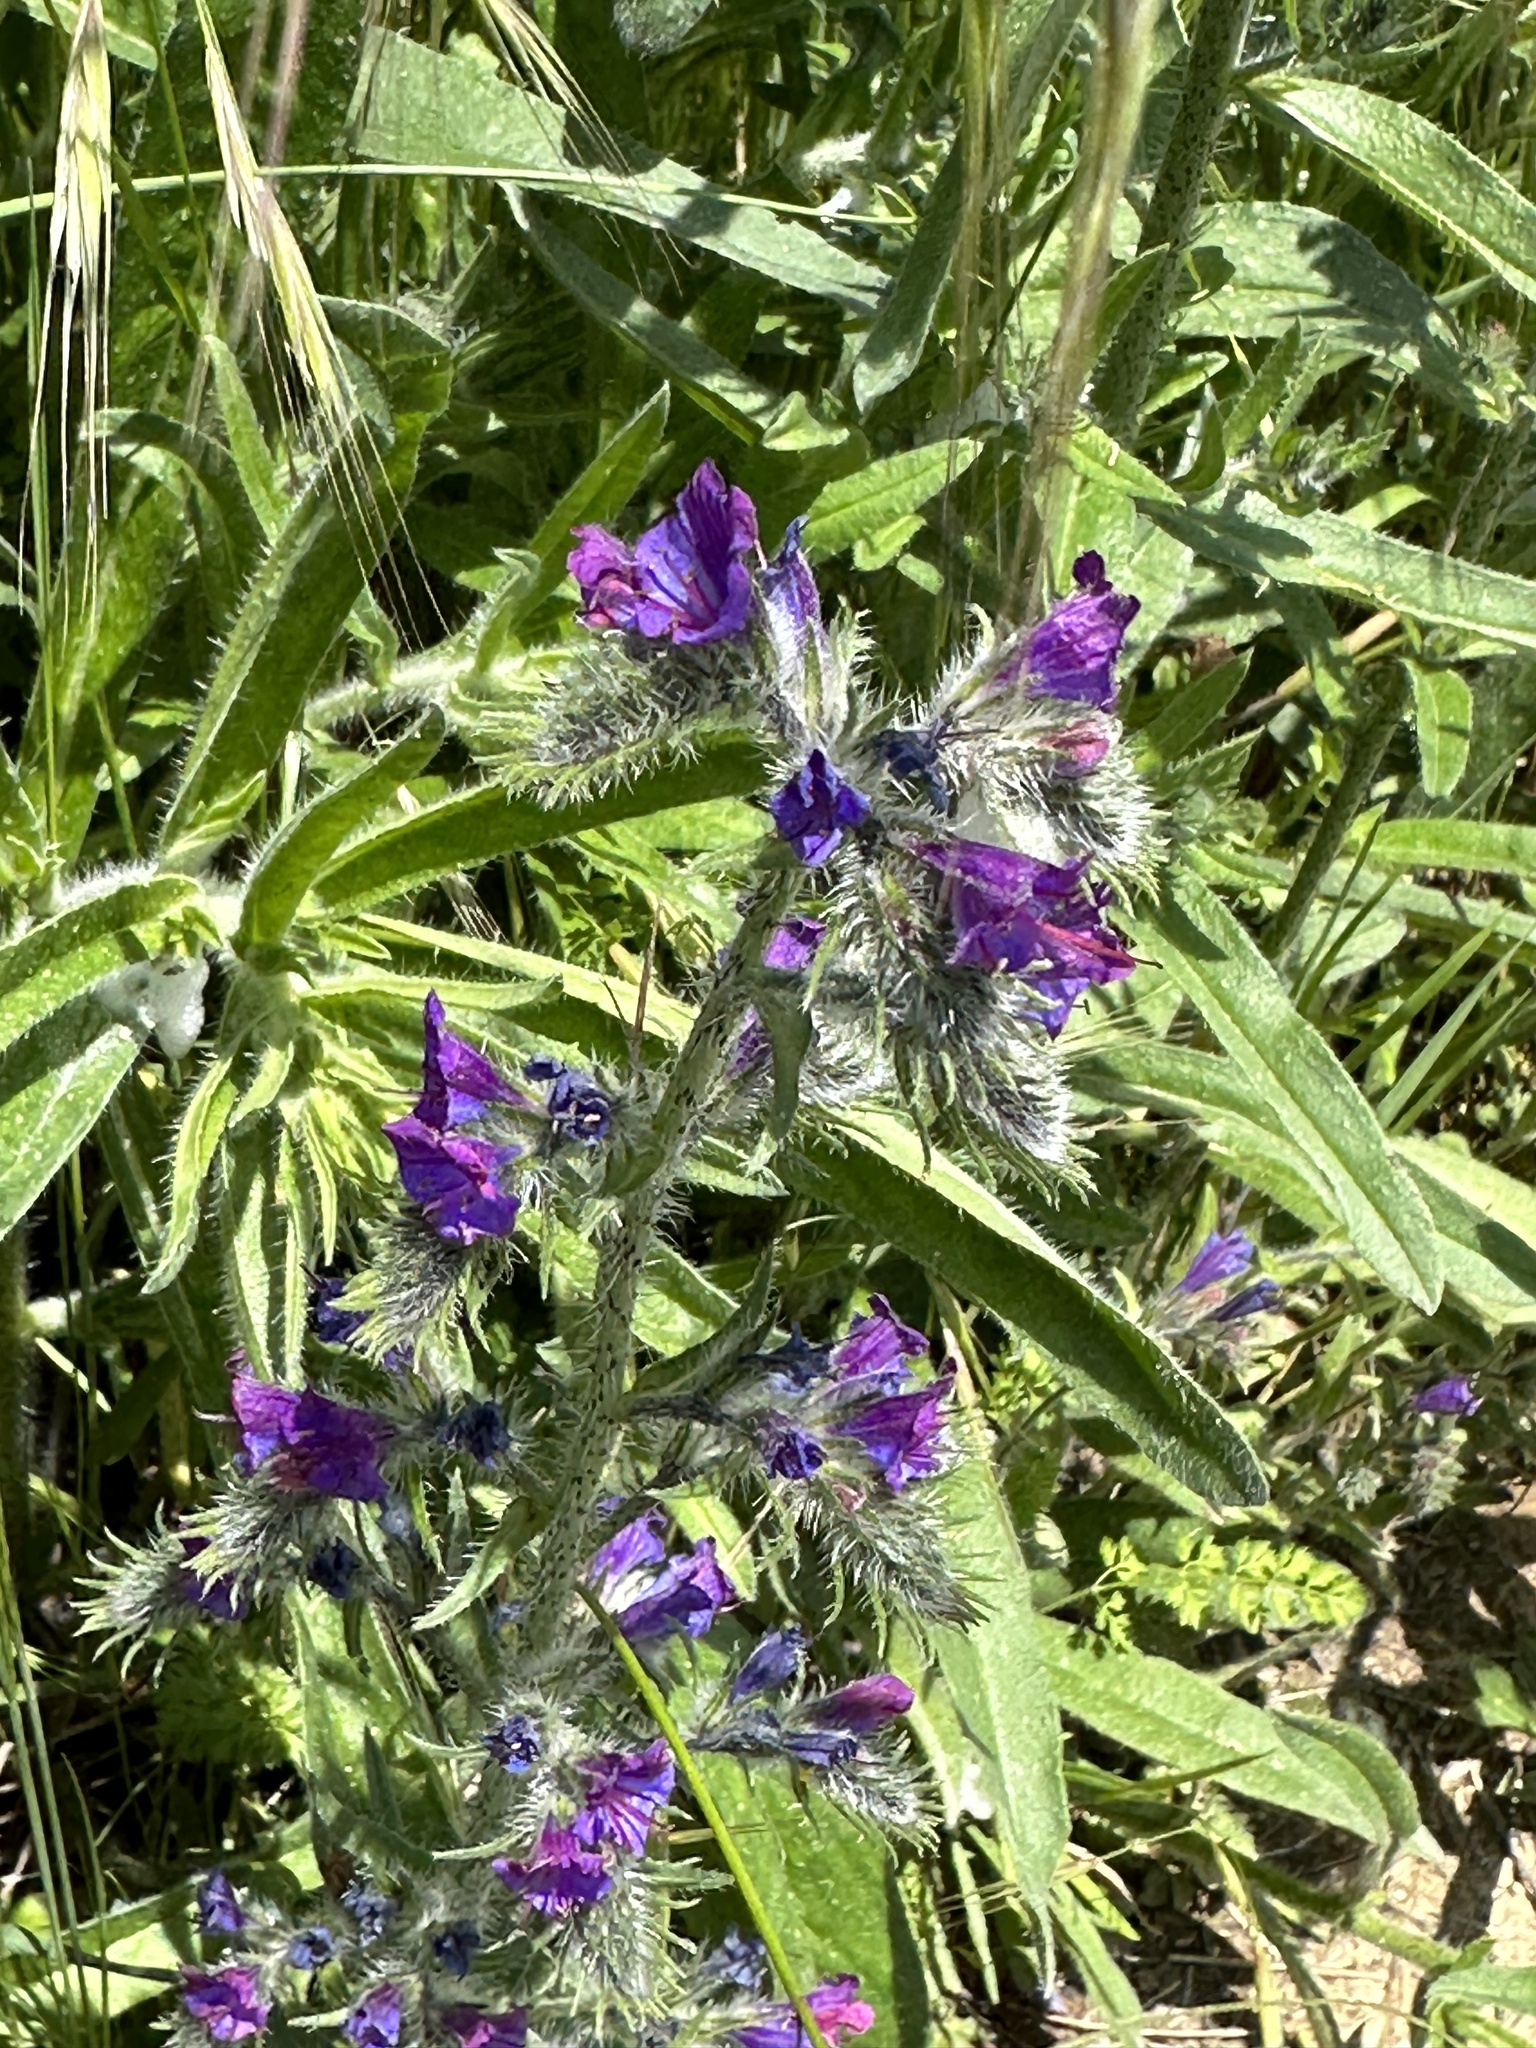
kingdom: Plantae
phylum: Tracheophyta
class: Magnoliopsida
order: Boraginales
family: Boraginaceae
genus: Echium
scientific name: Echium vulgare
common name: Common viper's bugloss
